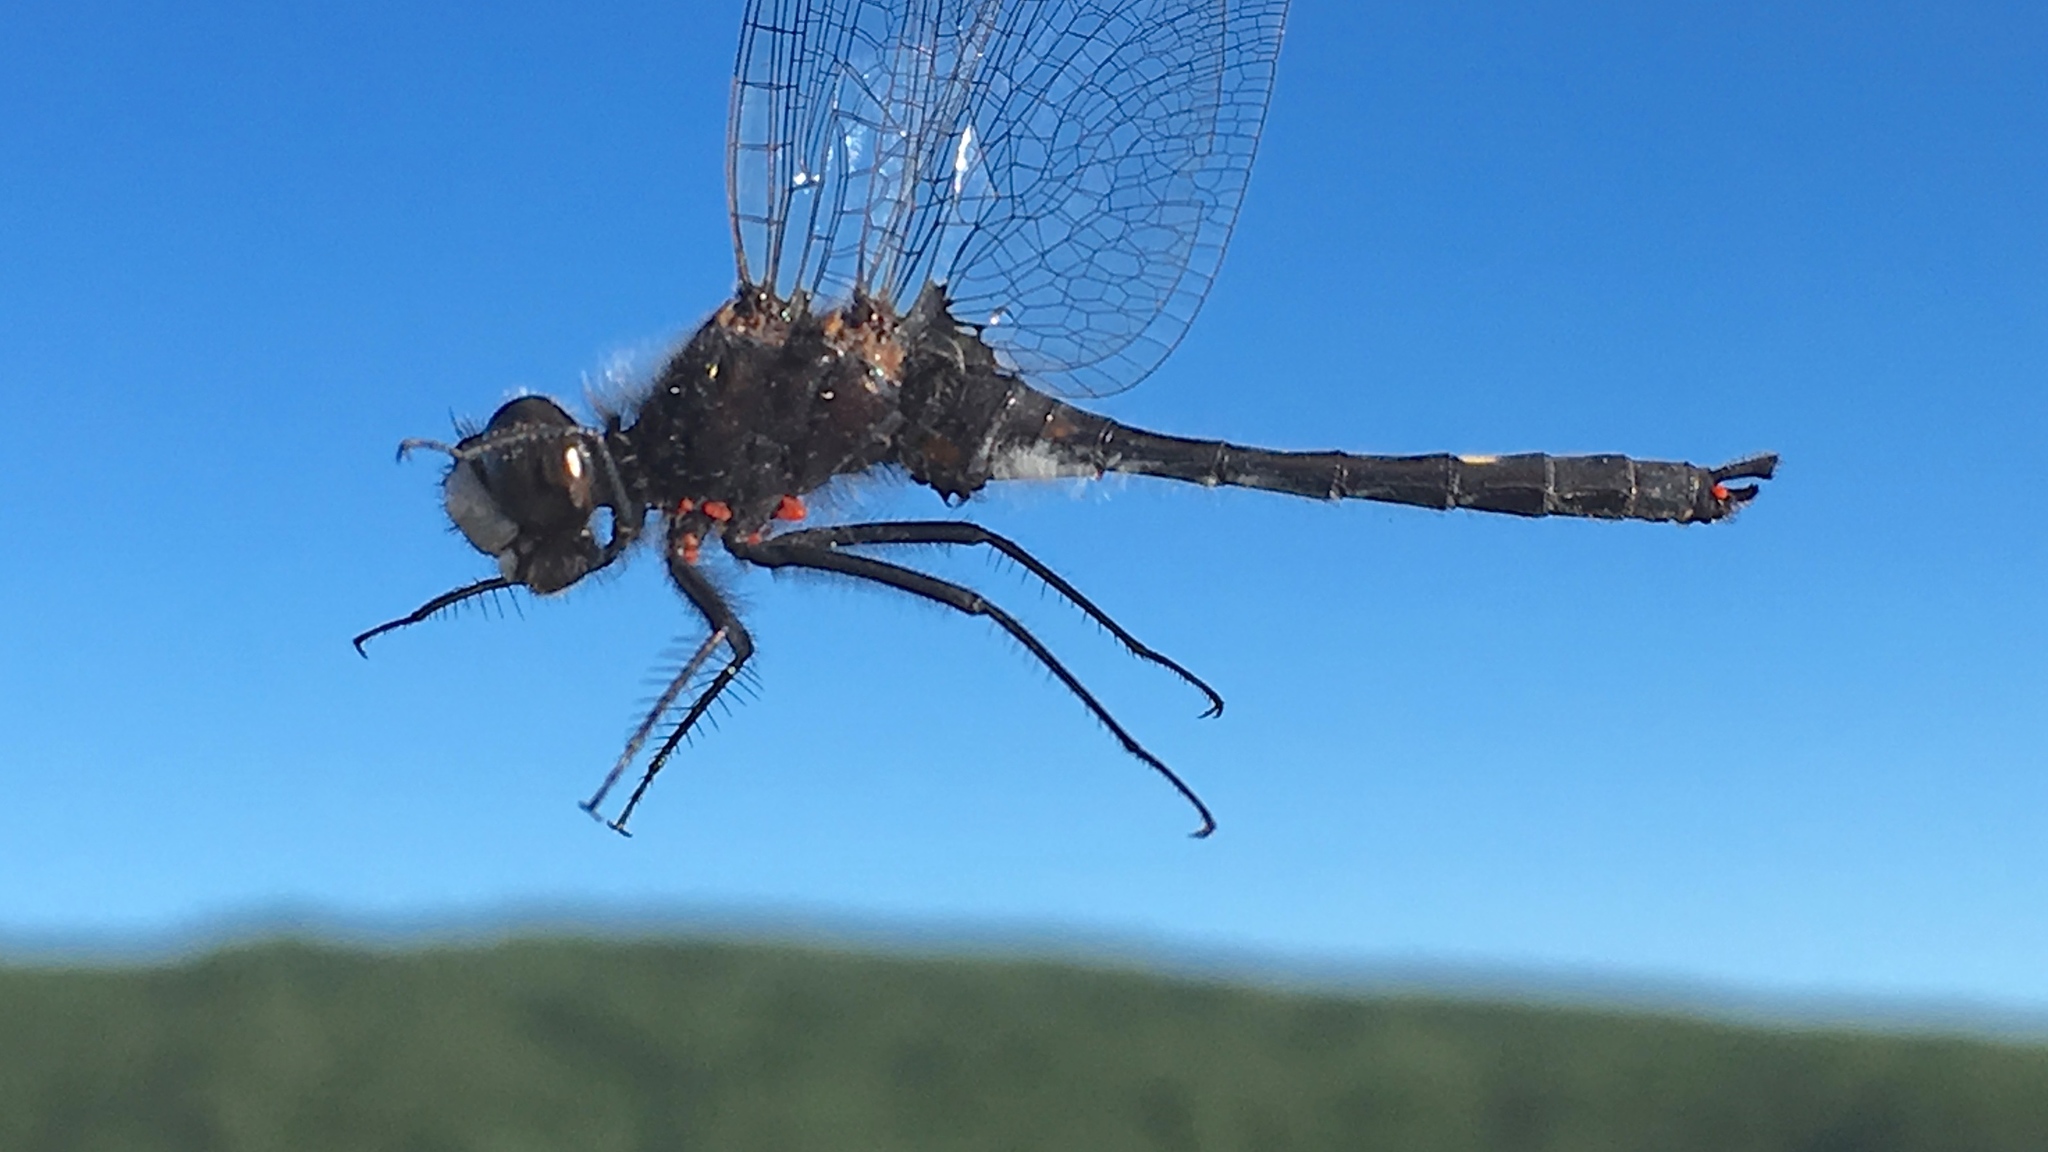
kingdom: Animalia
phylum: Arthropoda
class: Insecta
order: Odonata
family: Libellulidae
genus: Leucorrhinia
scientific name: Leucorrhinia intacta
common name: Dot-tailed whiteface
